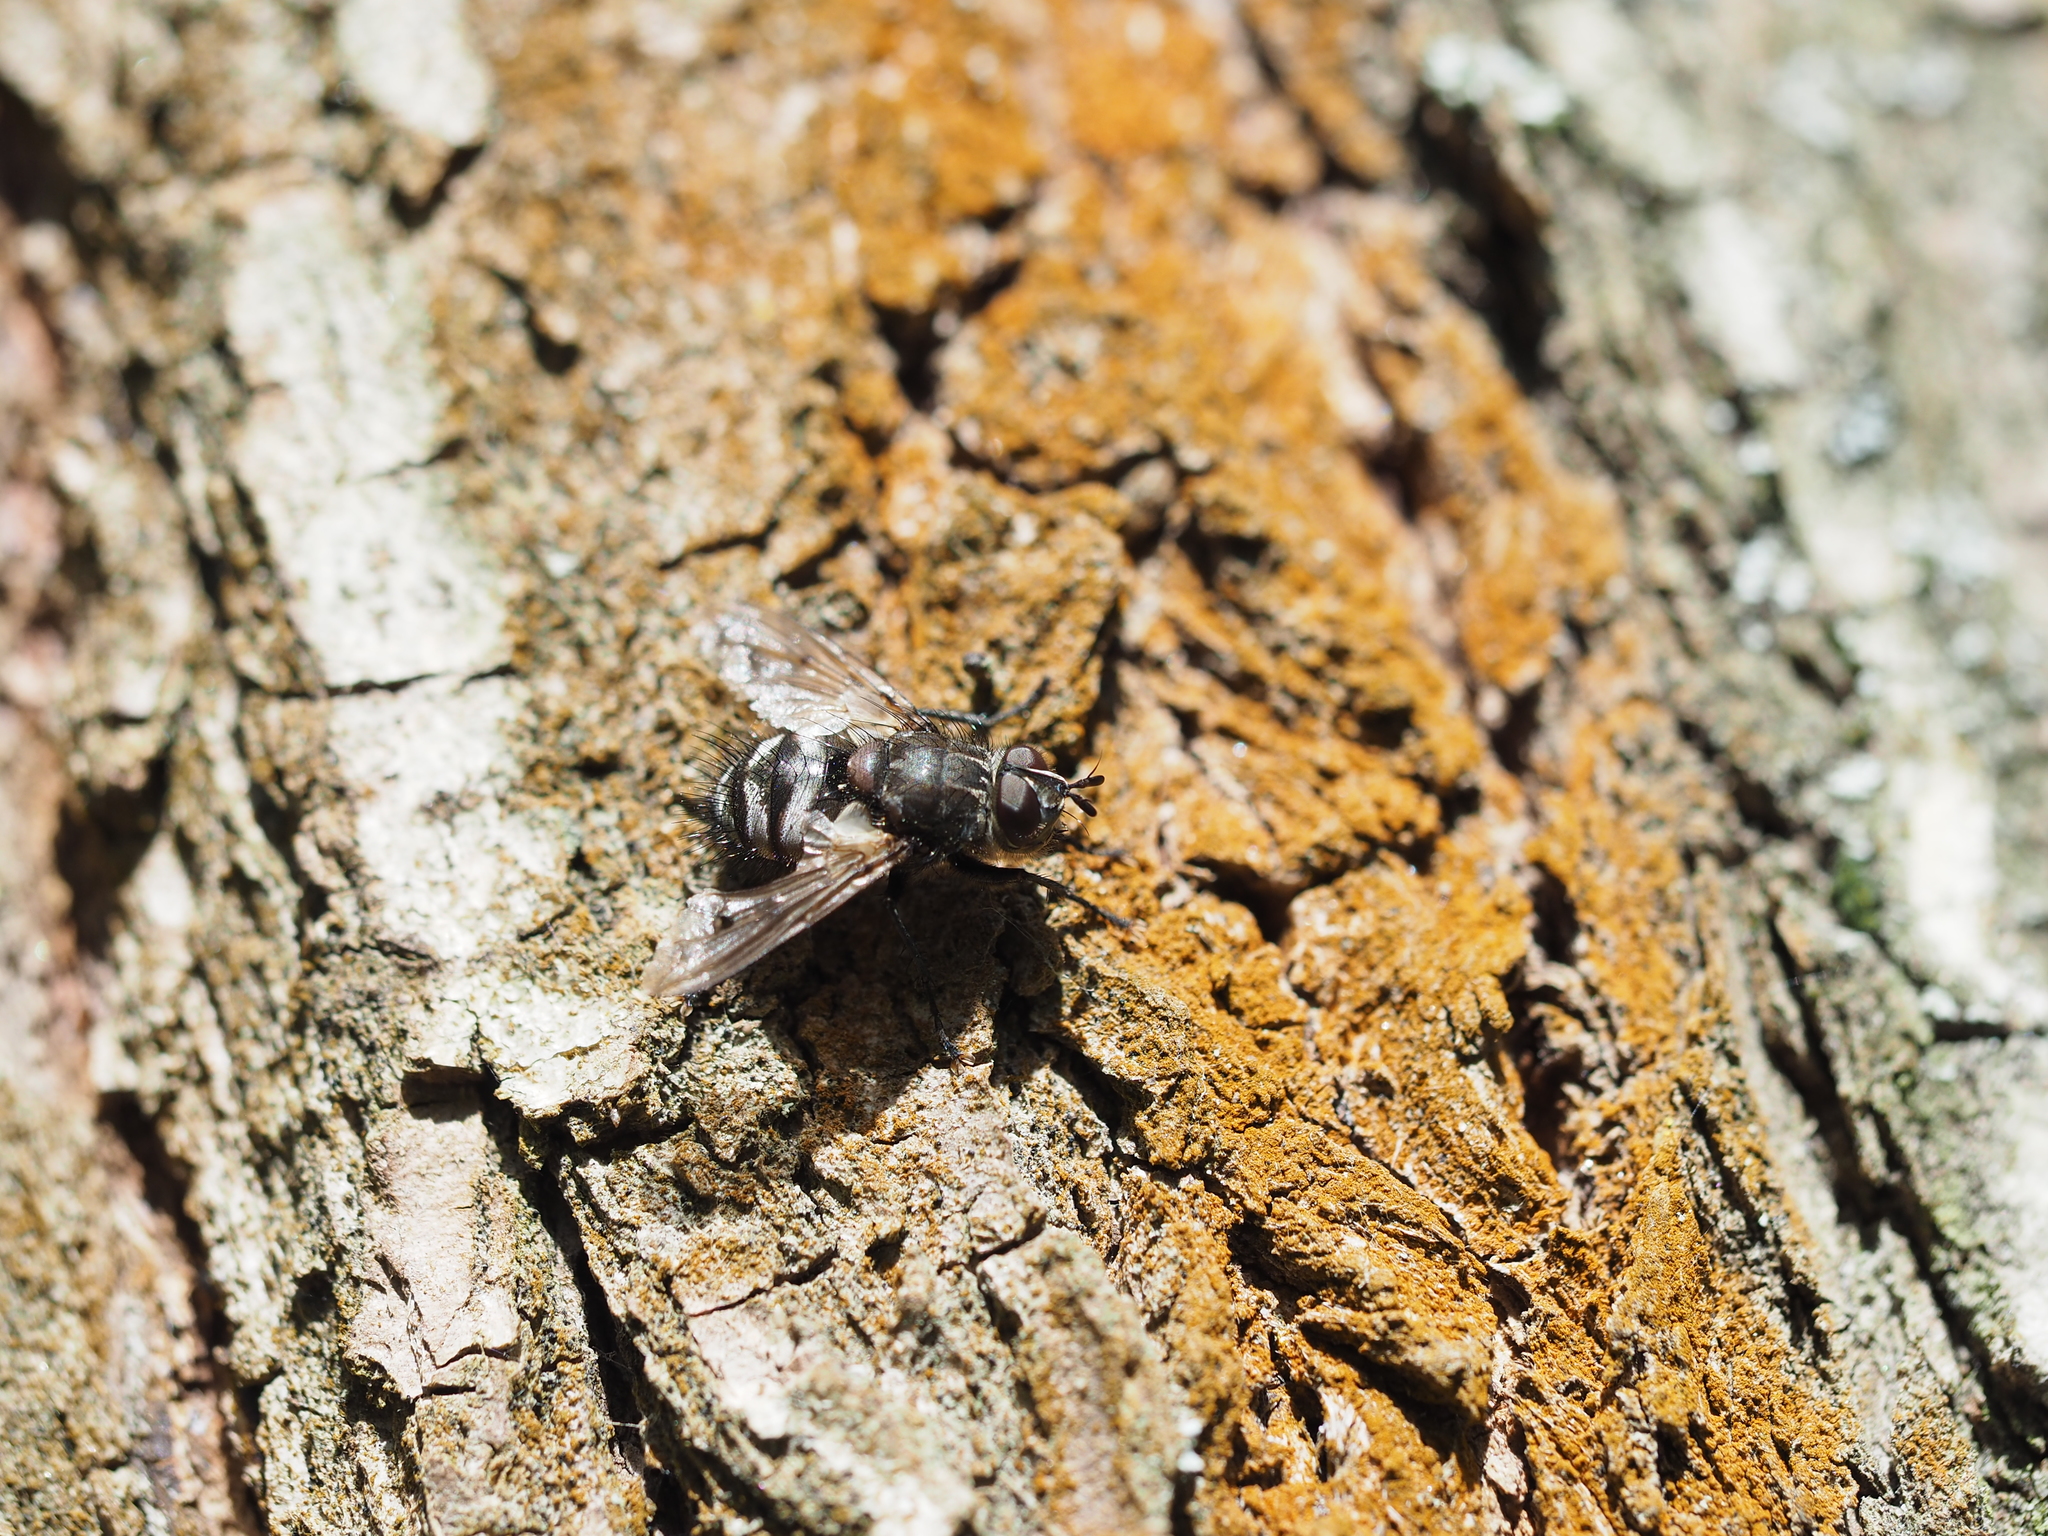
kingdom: Animalia
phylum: Arthropoda
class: Insecta
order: Diptera
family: Tachinidae
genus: Panzeria
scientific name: Panzeria puparum
